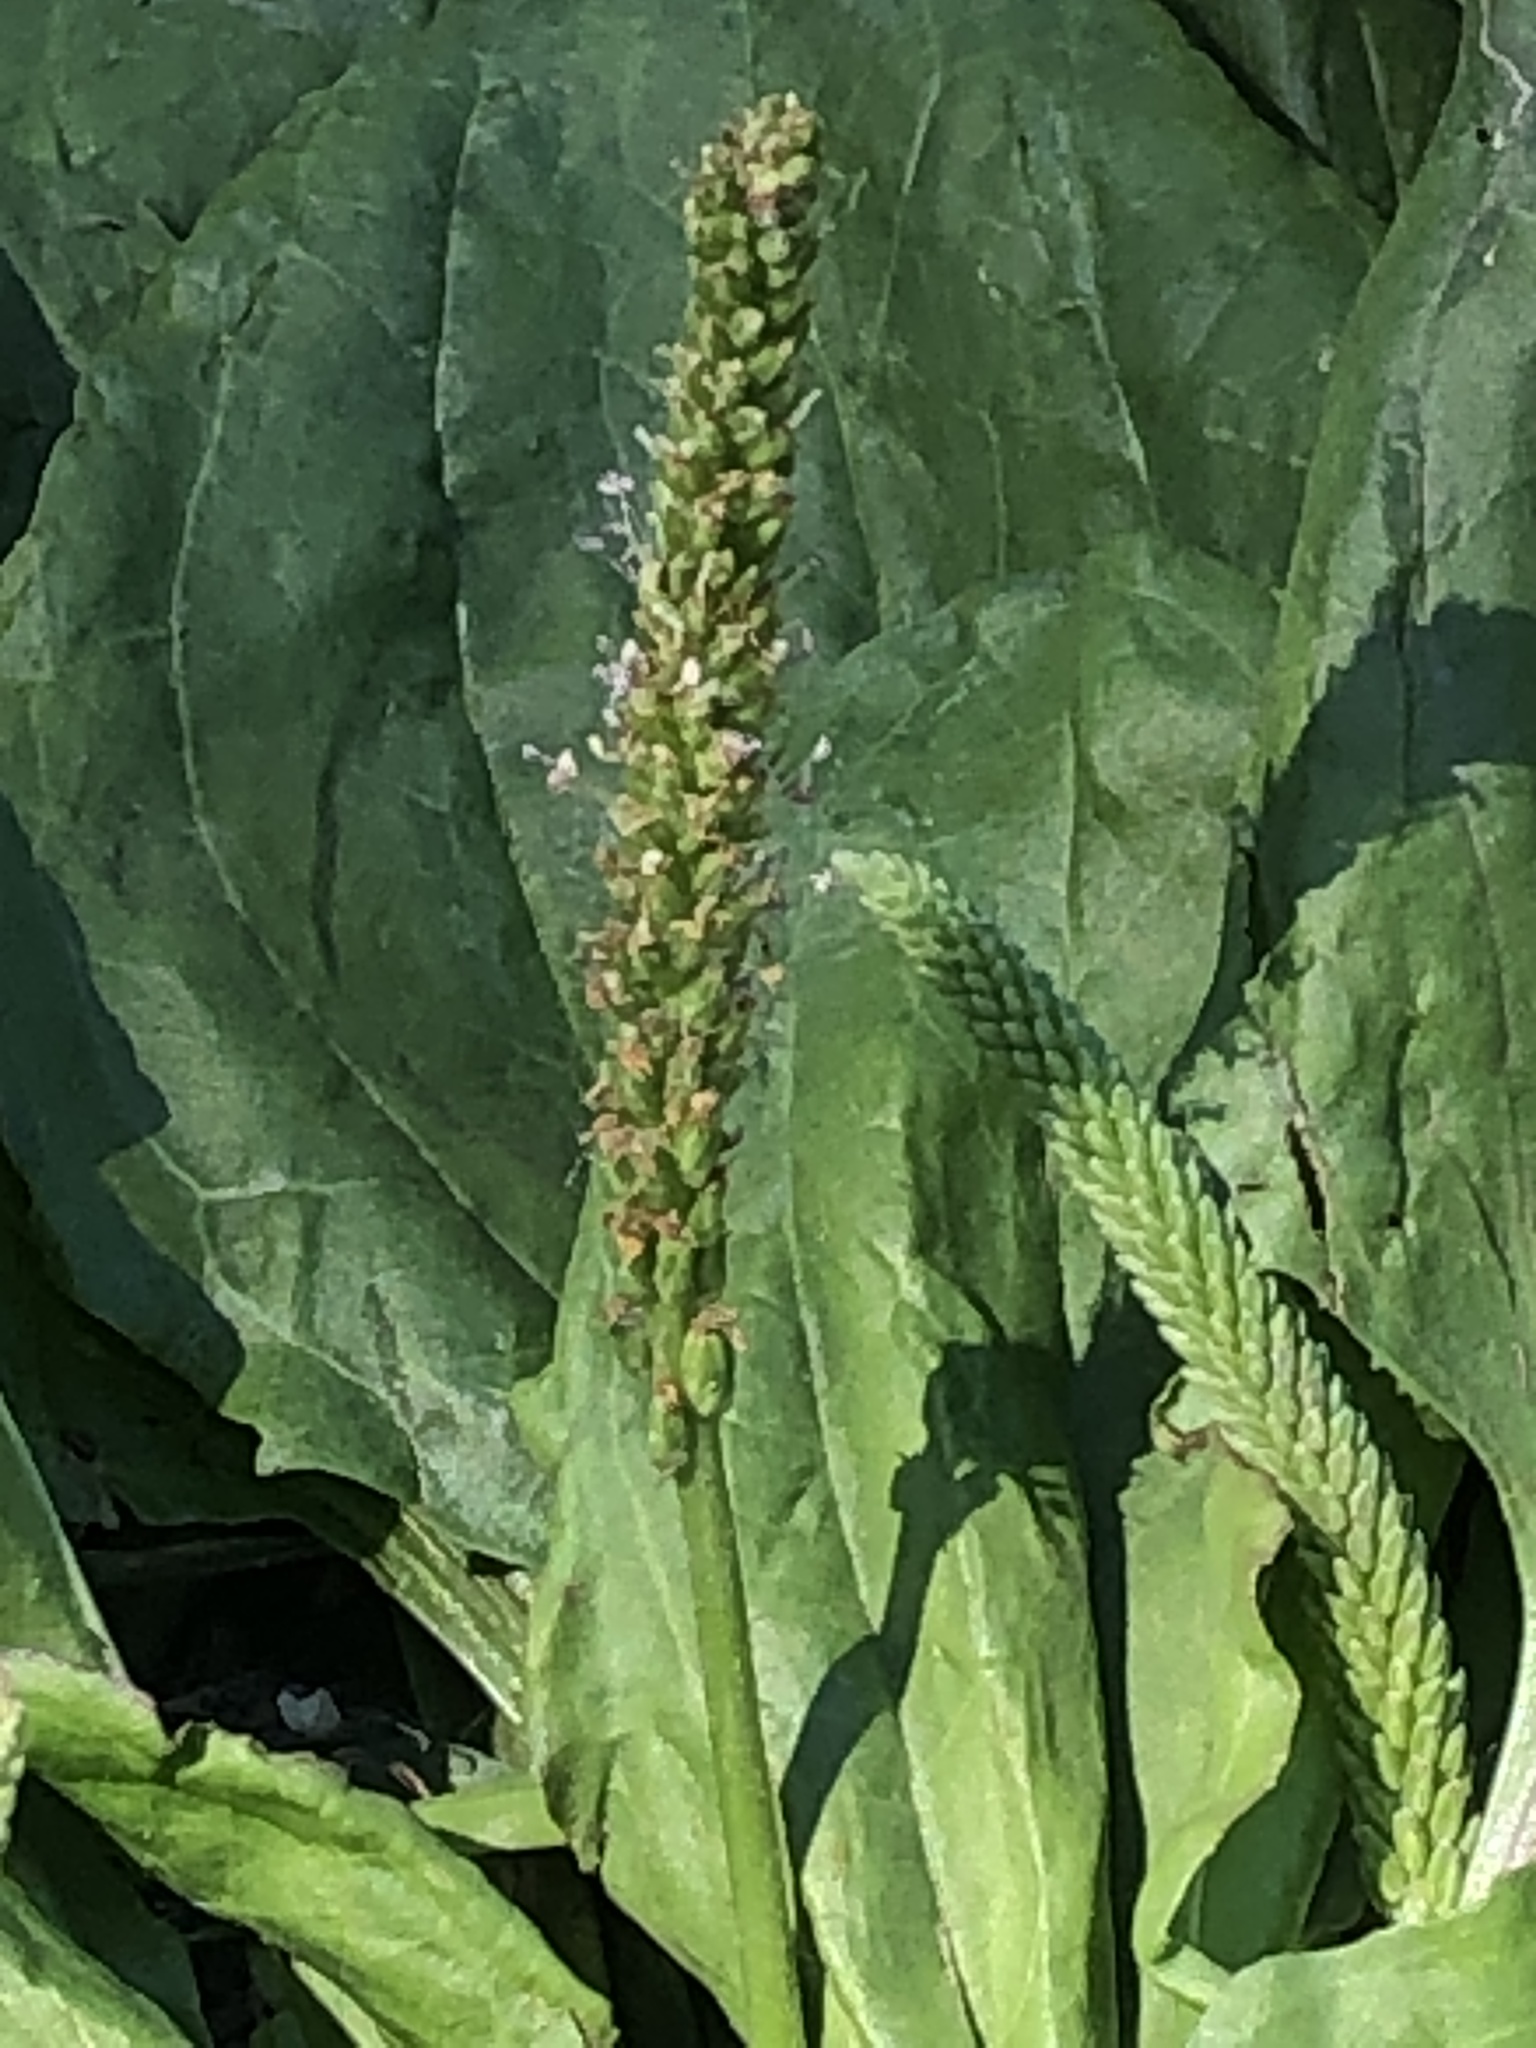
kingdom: Plantae
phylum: Tracheophyta
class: Magnoliopsida
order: Lamiales
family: Plantaginaceae
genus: Plantago
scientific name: Plantago rugelii
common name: American plantain
